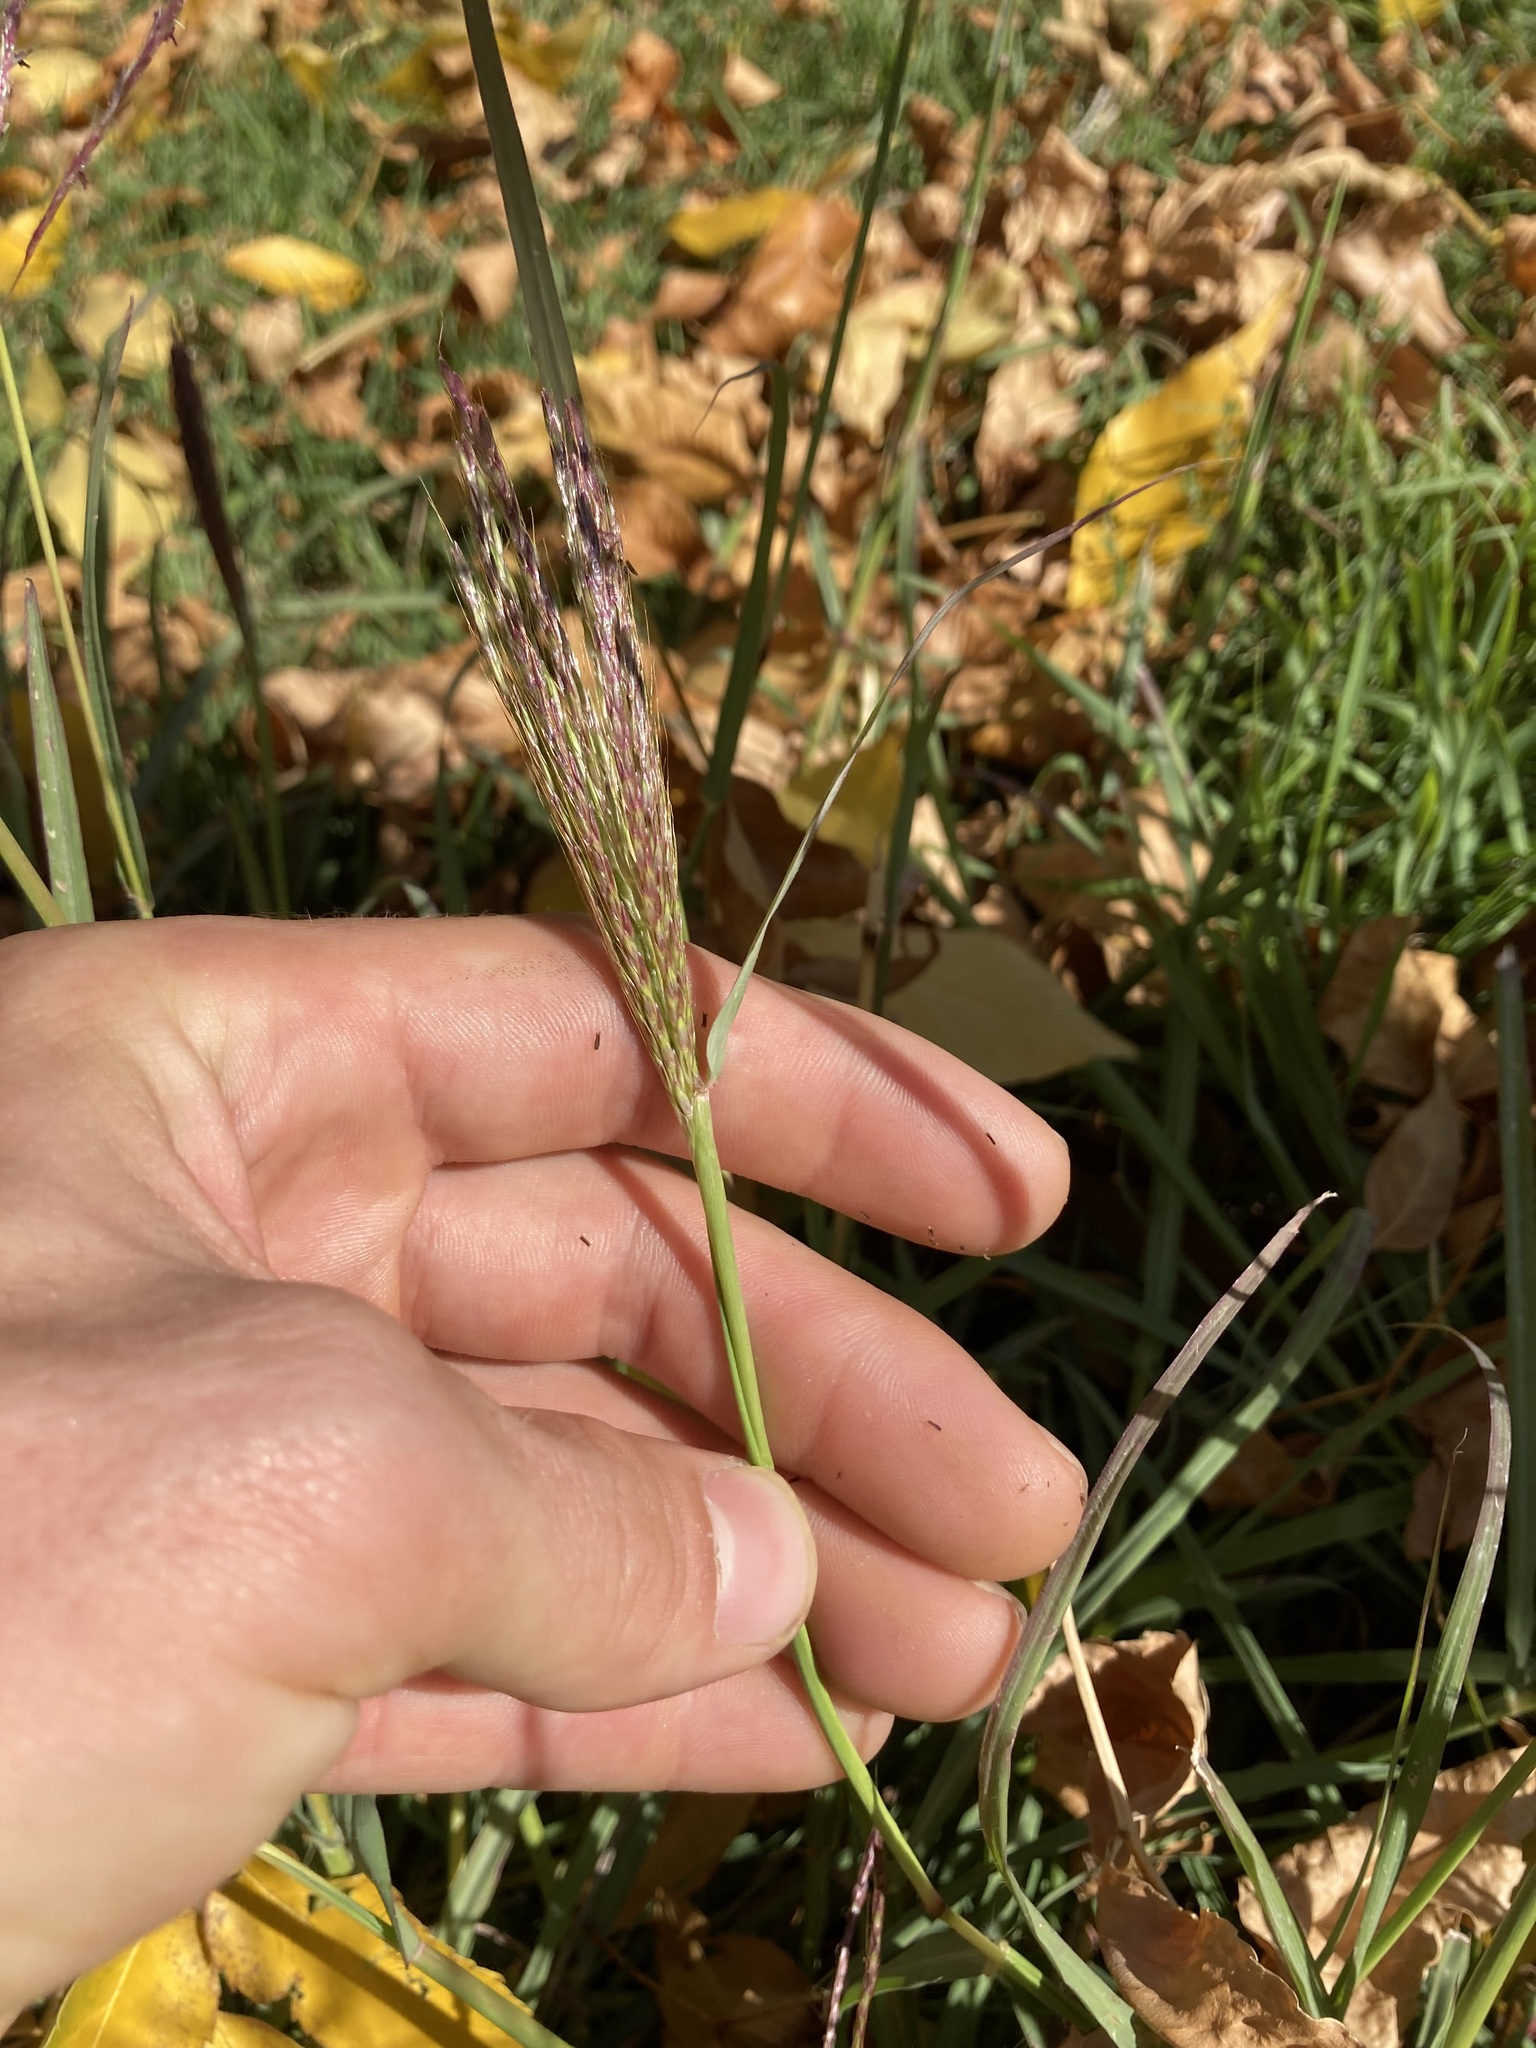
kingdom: Plantae
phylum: Tracheophyta
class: Liliopsida
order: Poales
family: Poaceae
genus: Bothriochloa
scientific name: Bothriochloa ischaemum
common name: Yellow bluestem
